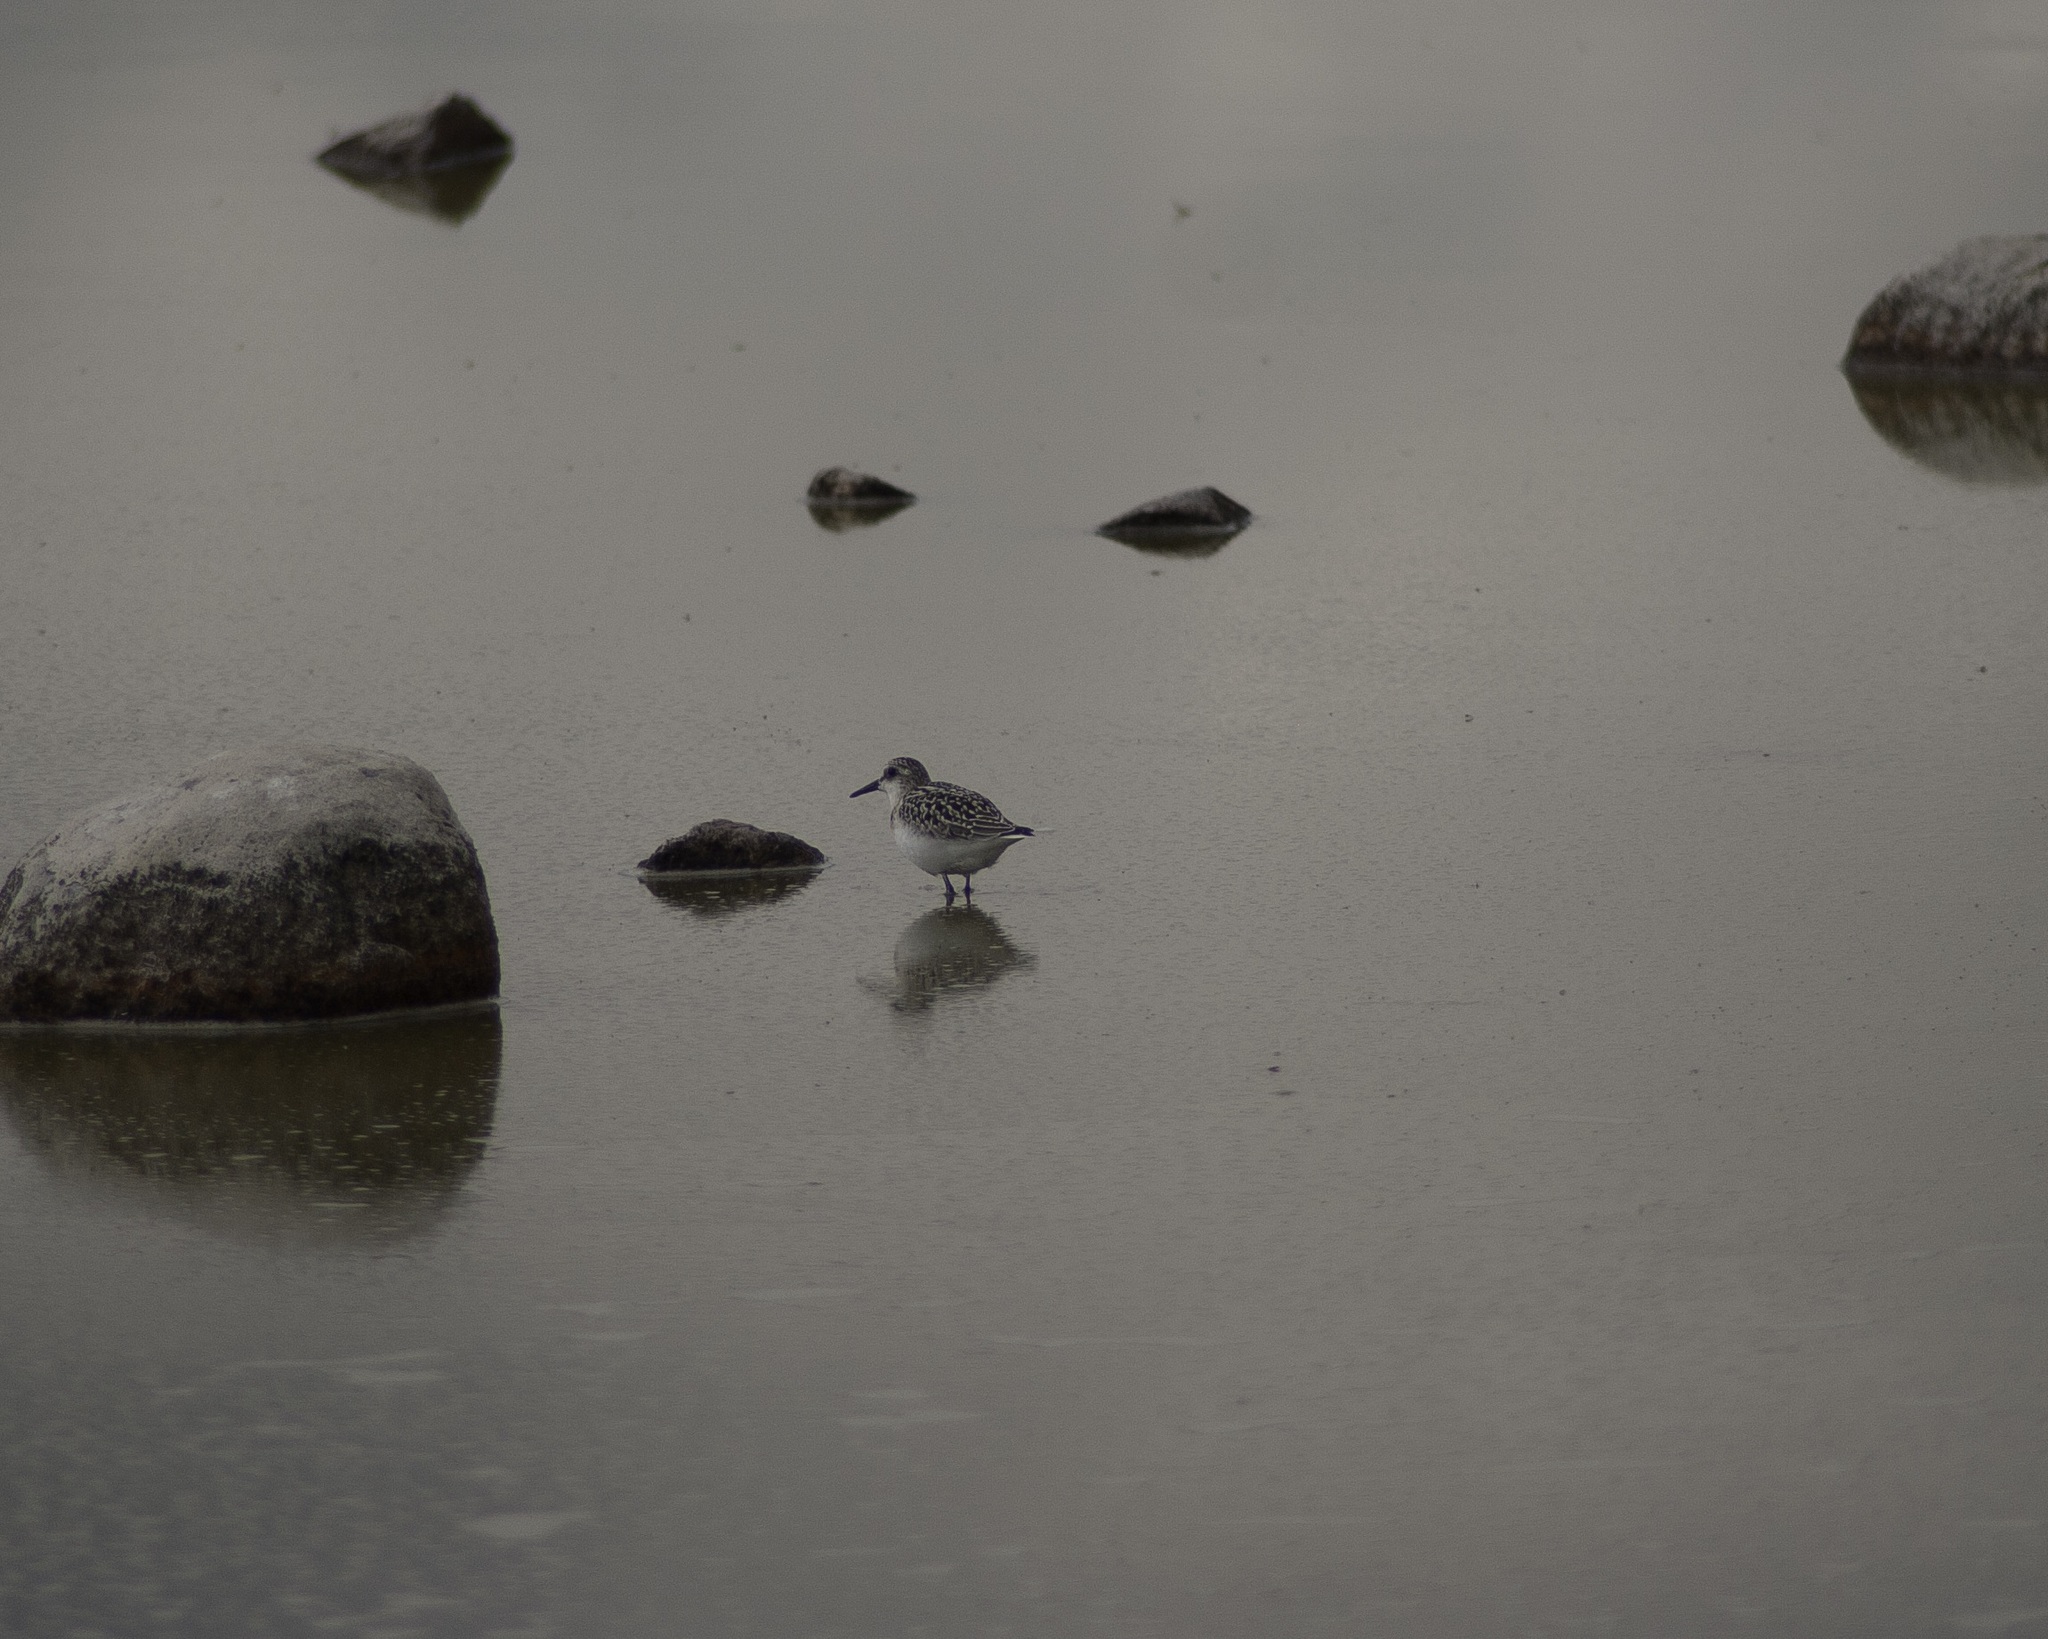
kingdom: Animalia
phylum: Chordata
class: Aves
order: Charadriiformes
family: Scolopacidae
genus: Calidris
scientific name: Calidris alba
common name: Sanderling
